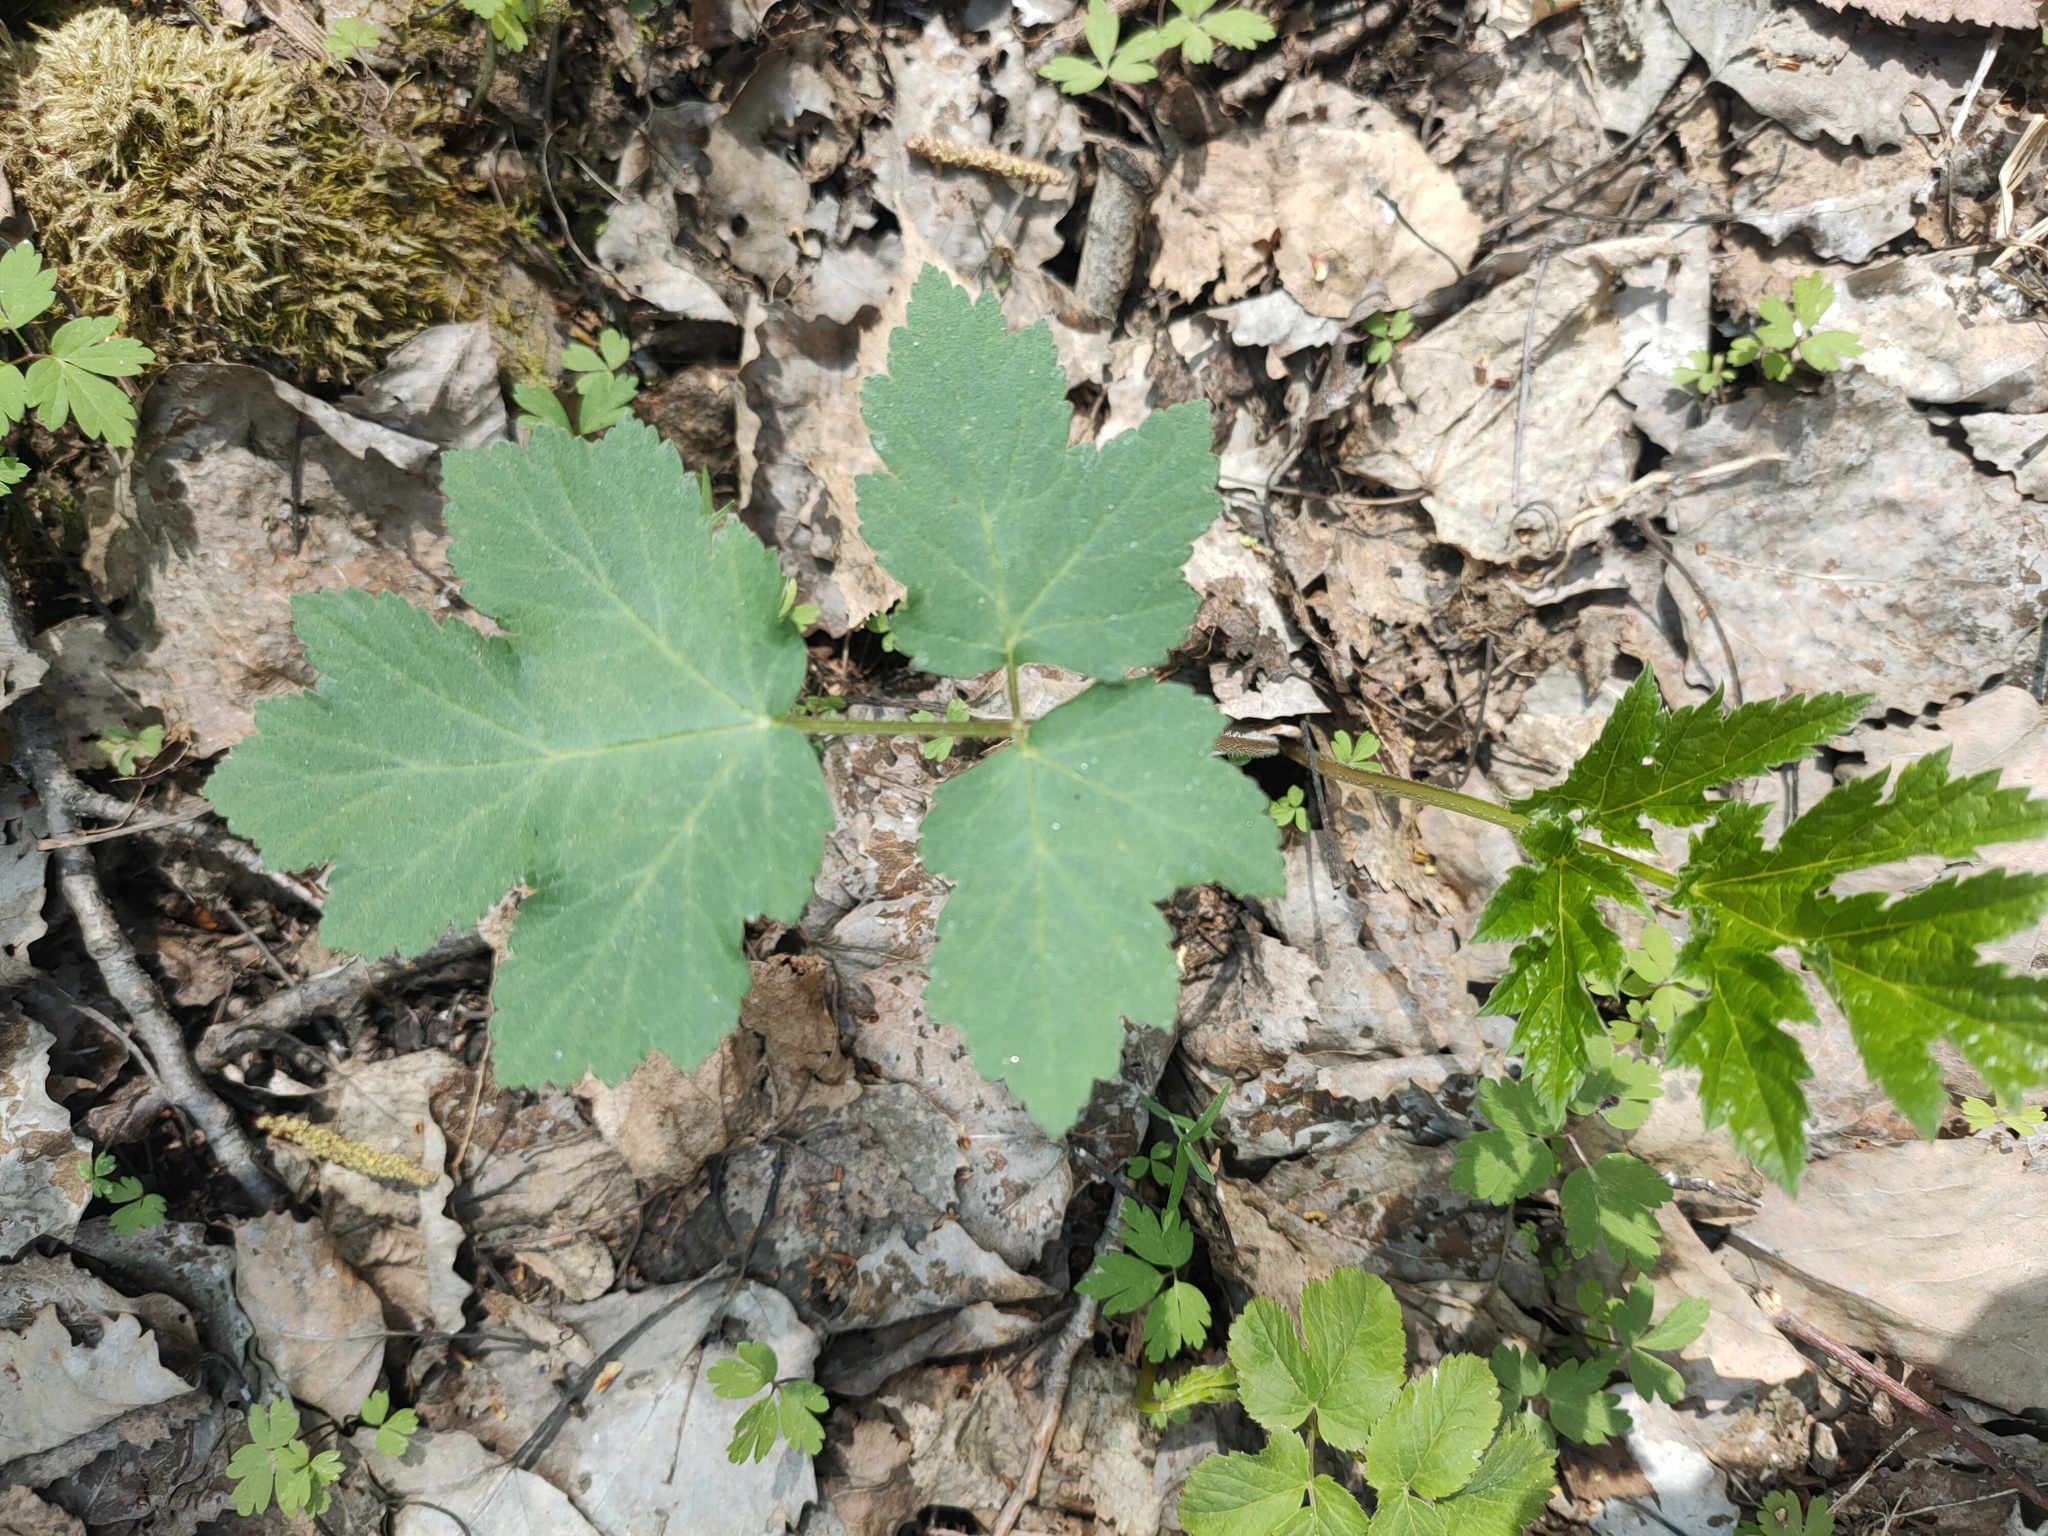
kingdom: Plantae
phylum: Tracheophyta
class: Magnoliopsida
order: Apiales
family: Apiaceae
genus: Heracleum
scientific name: Heracleum sphondylium
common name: Hogweed
